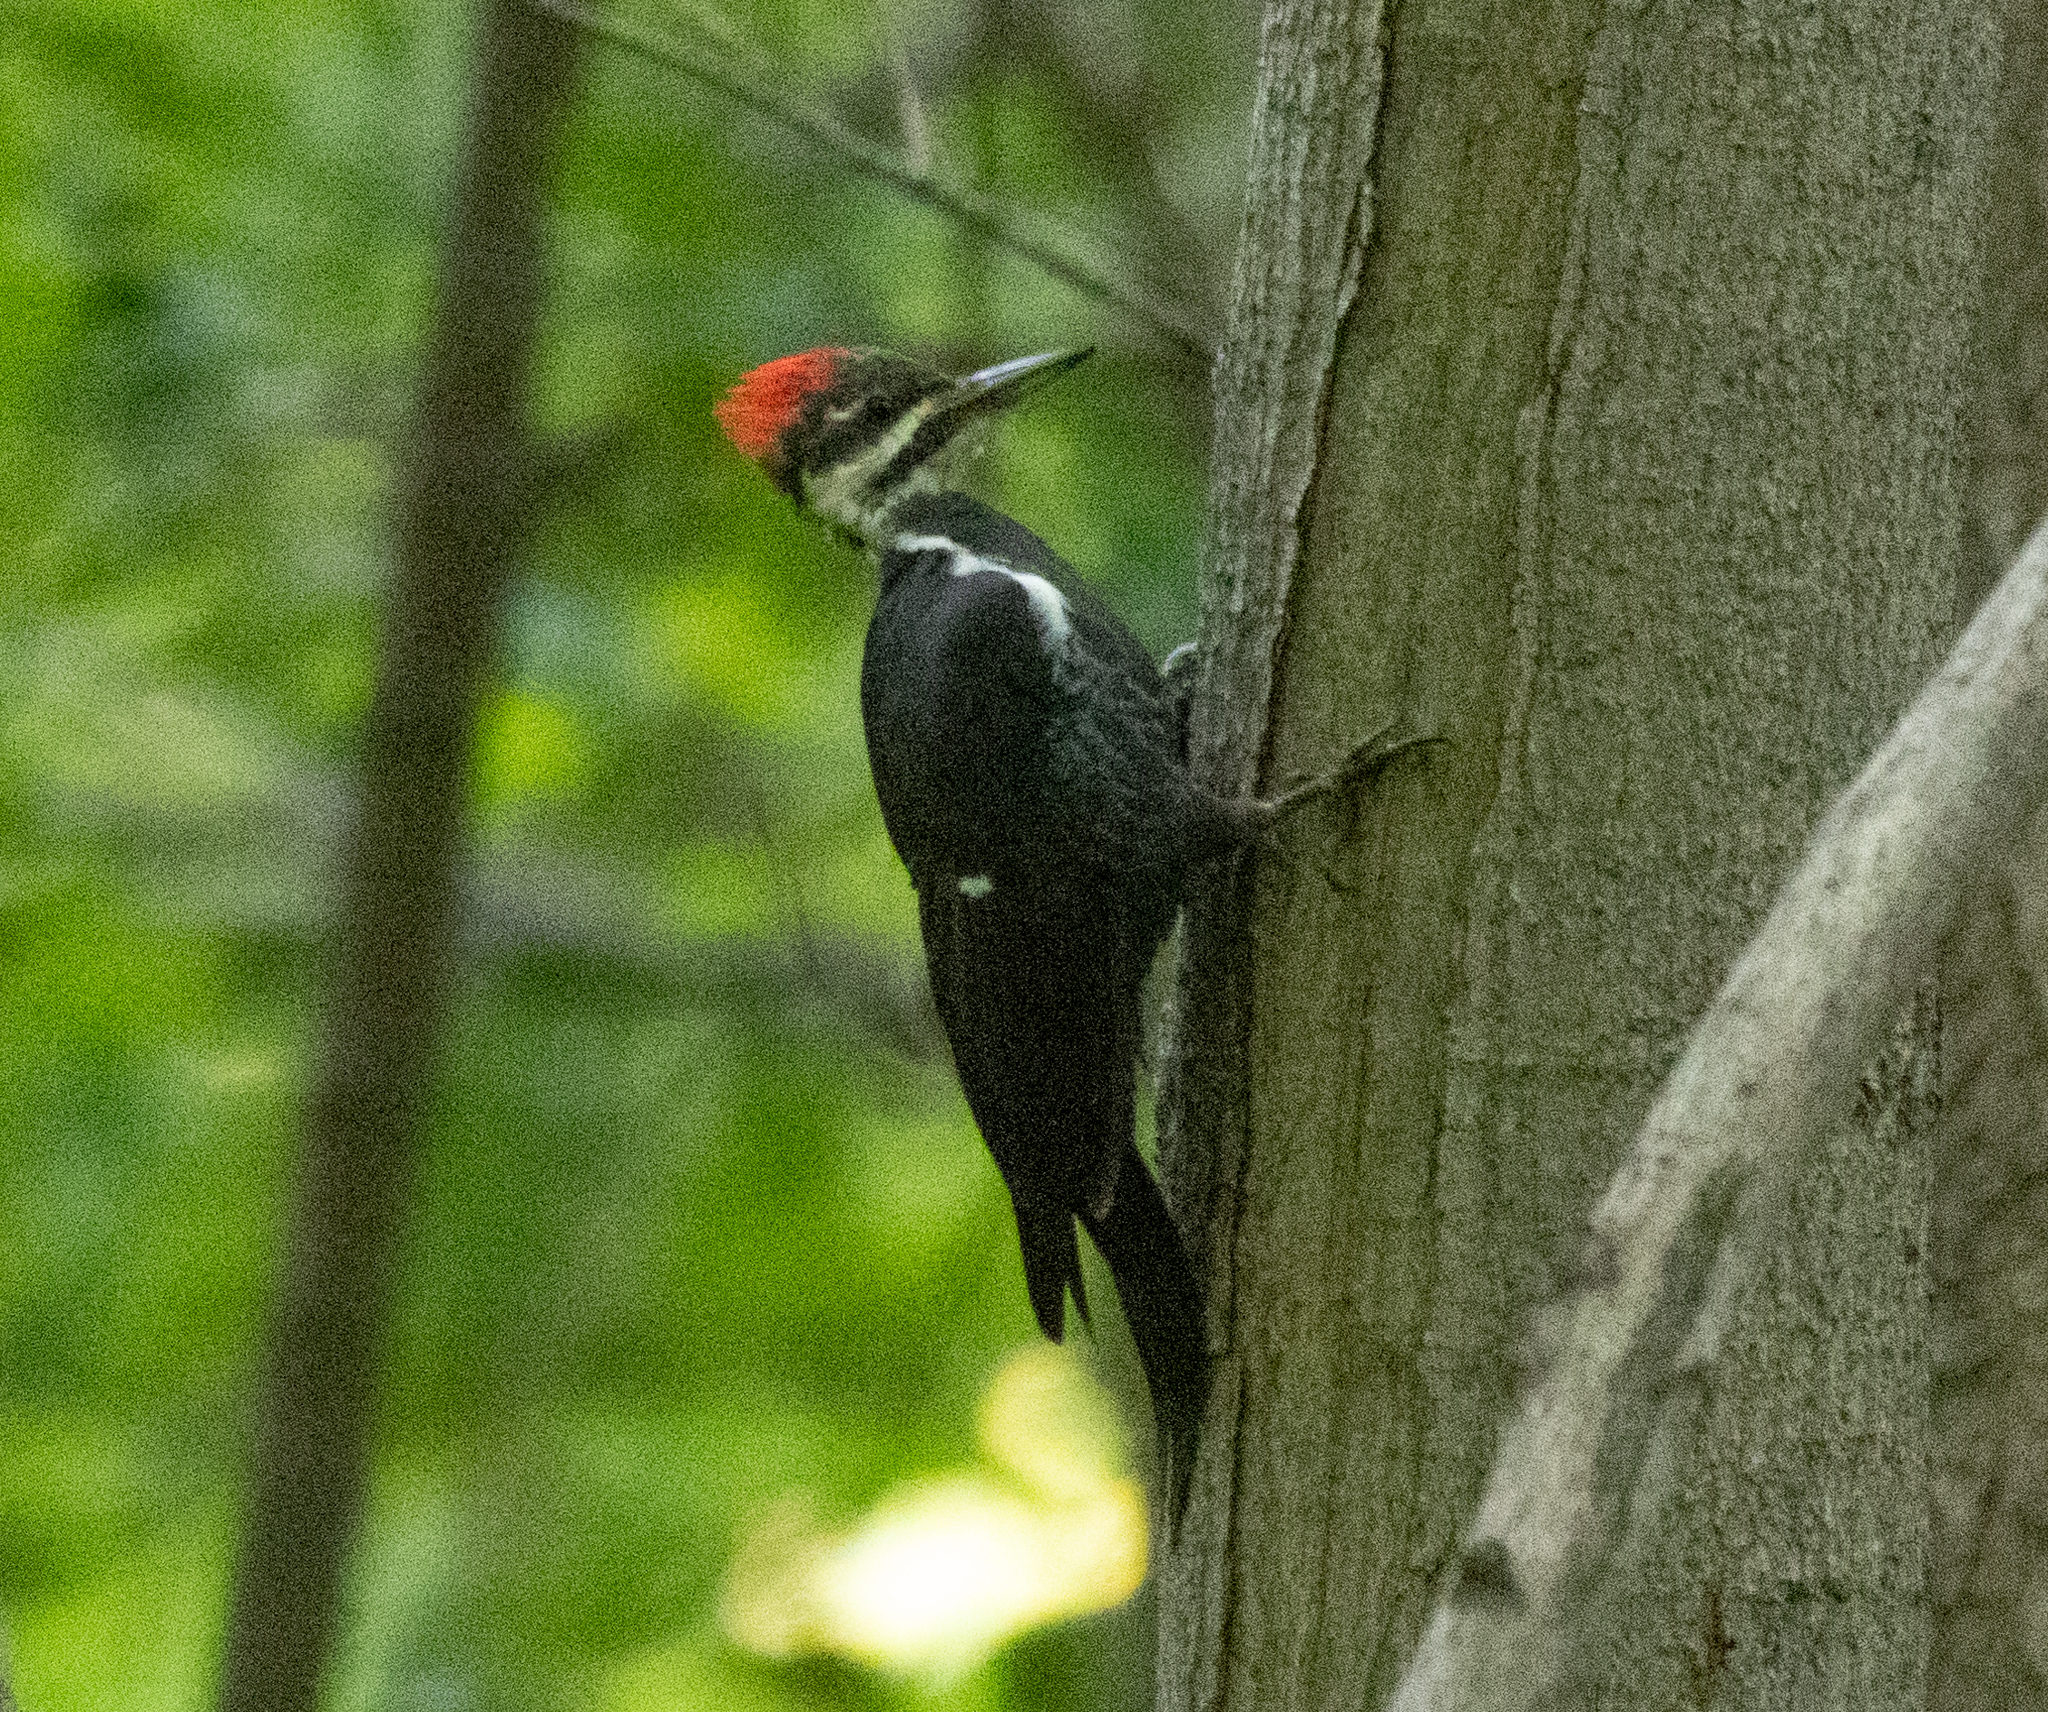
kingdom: Animalia
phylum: Chordata
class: Aves
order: Piciformes
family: Picidae
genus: Dryocopus
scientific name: Dryocopus pileatus
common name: Pileated woodpecker
